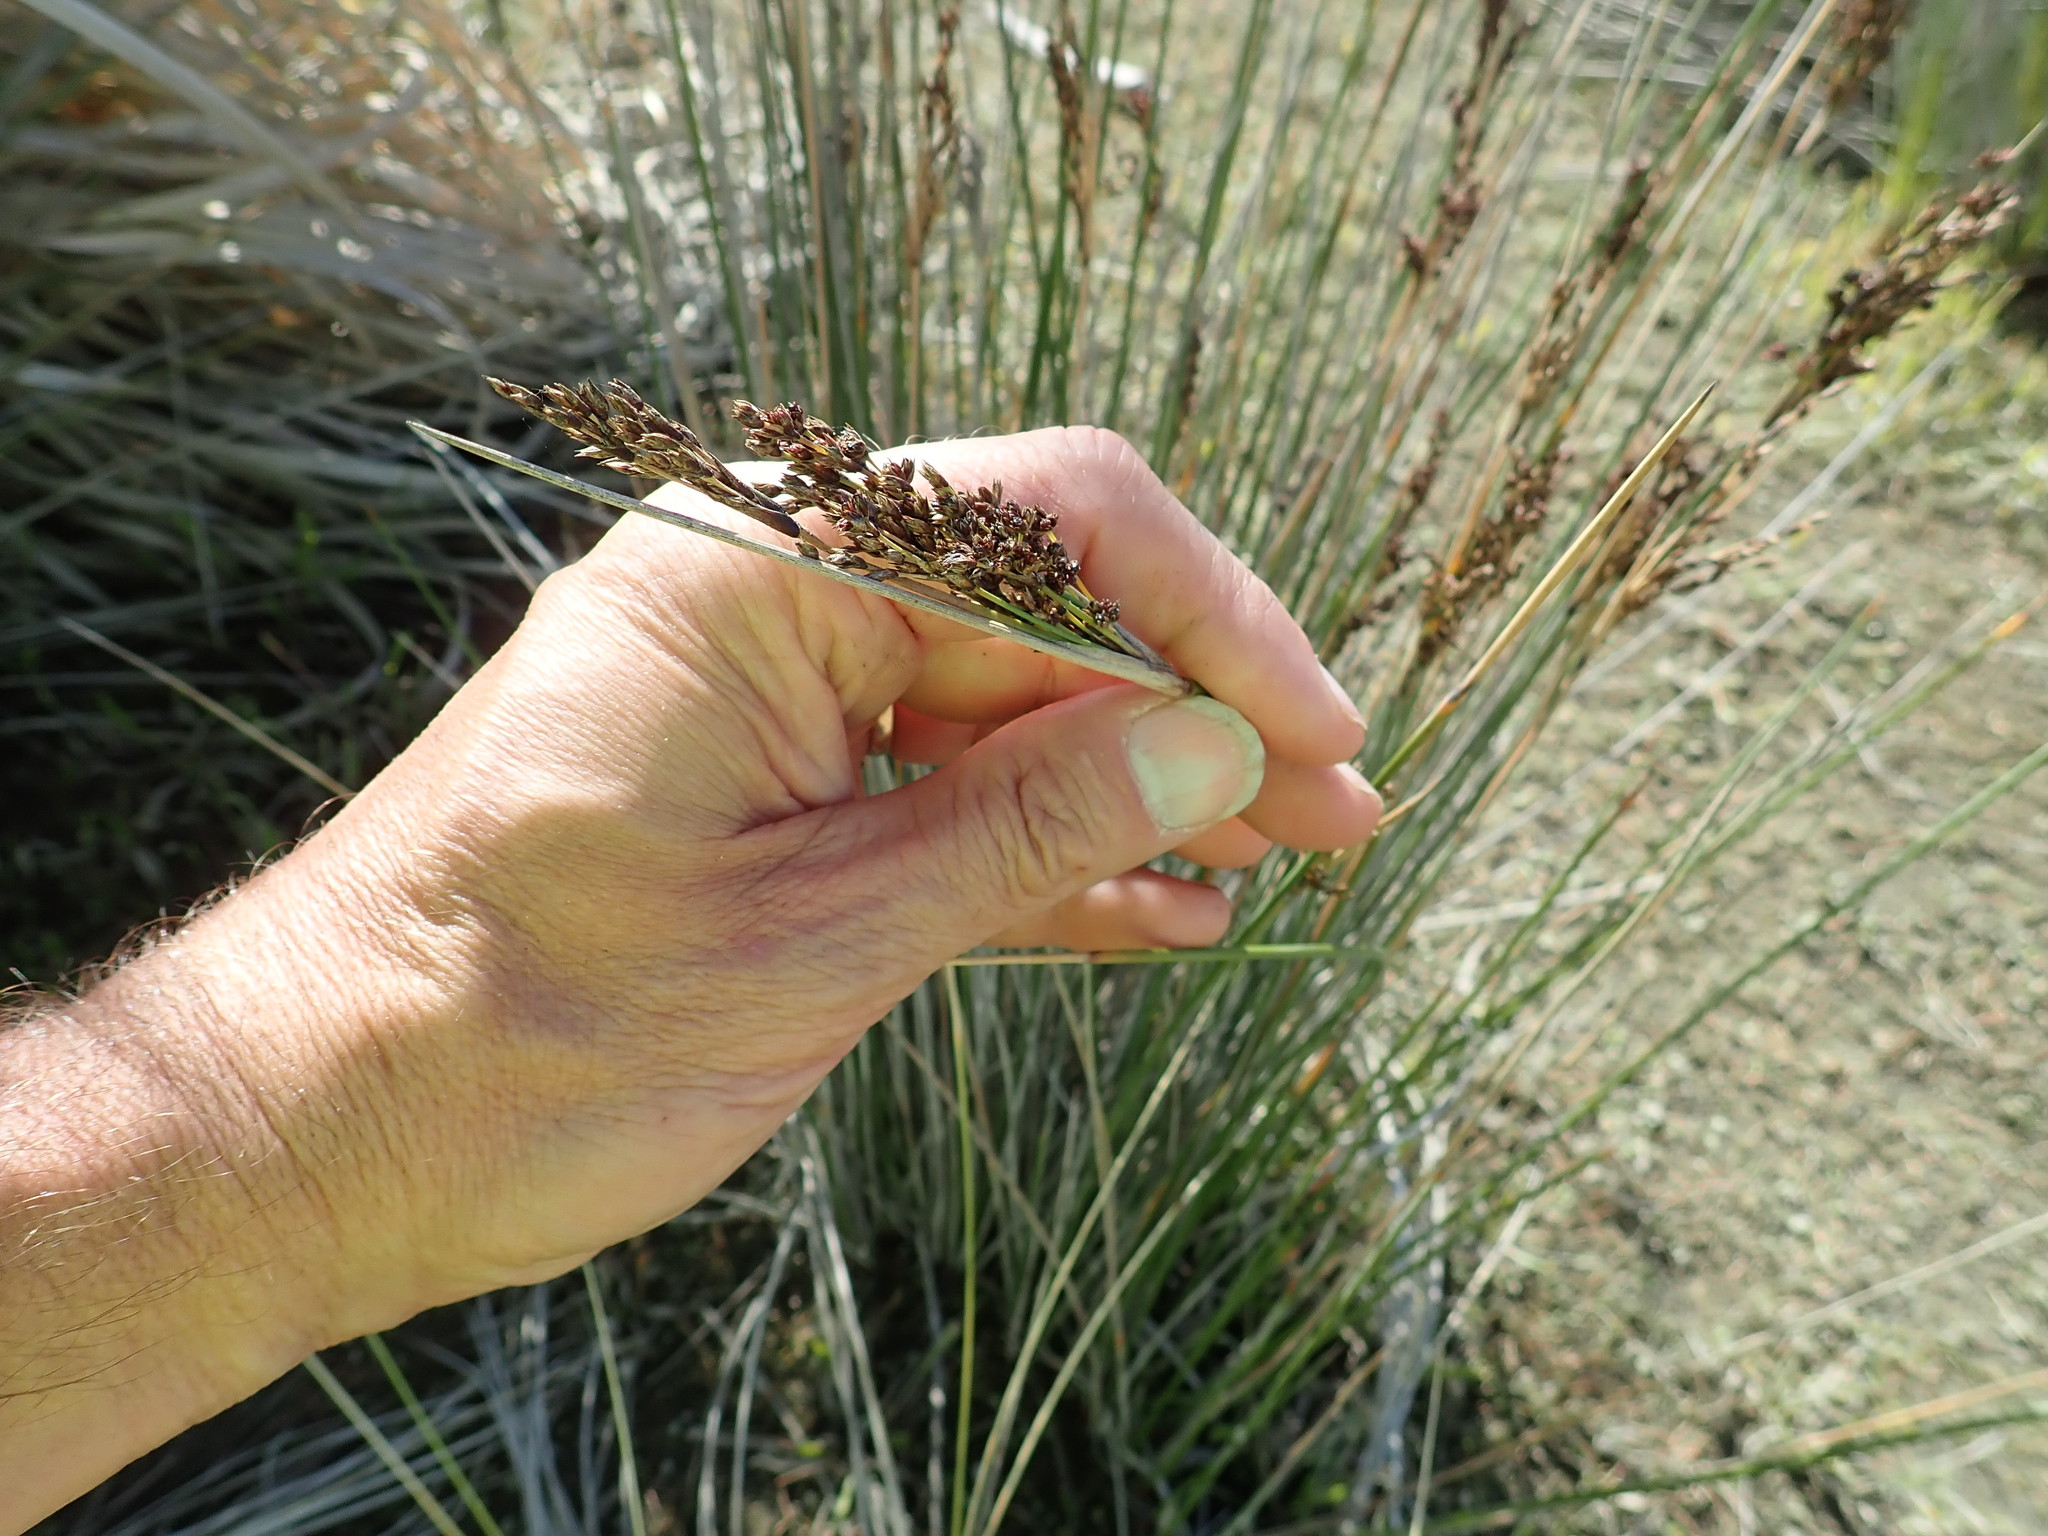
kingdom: Plantae
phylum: Tracheophyta
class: Liliopsida
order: Poales
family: Juncaceae
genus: Juncus
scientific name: Juncus kraussii
